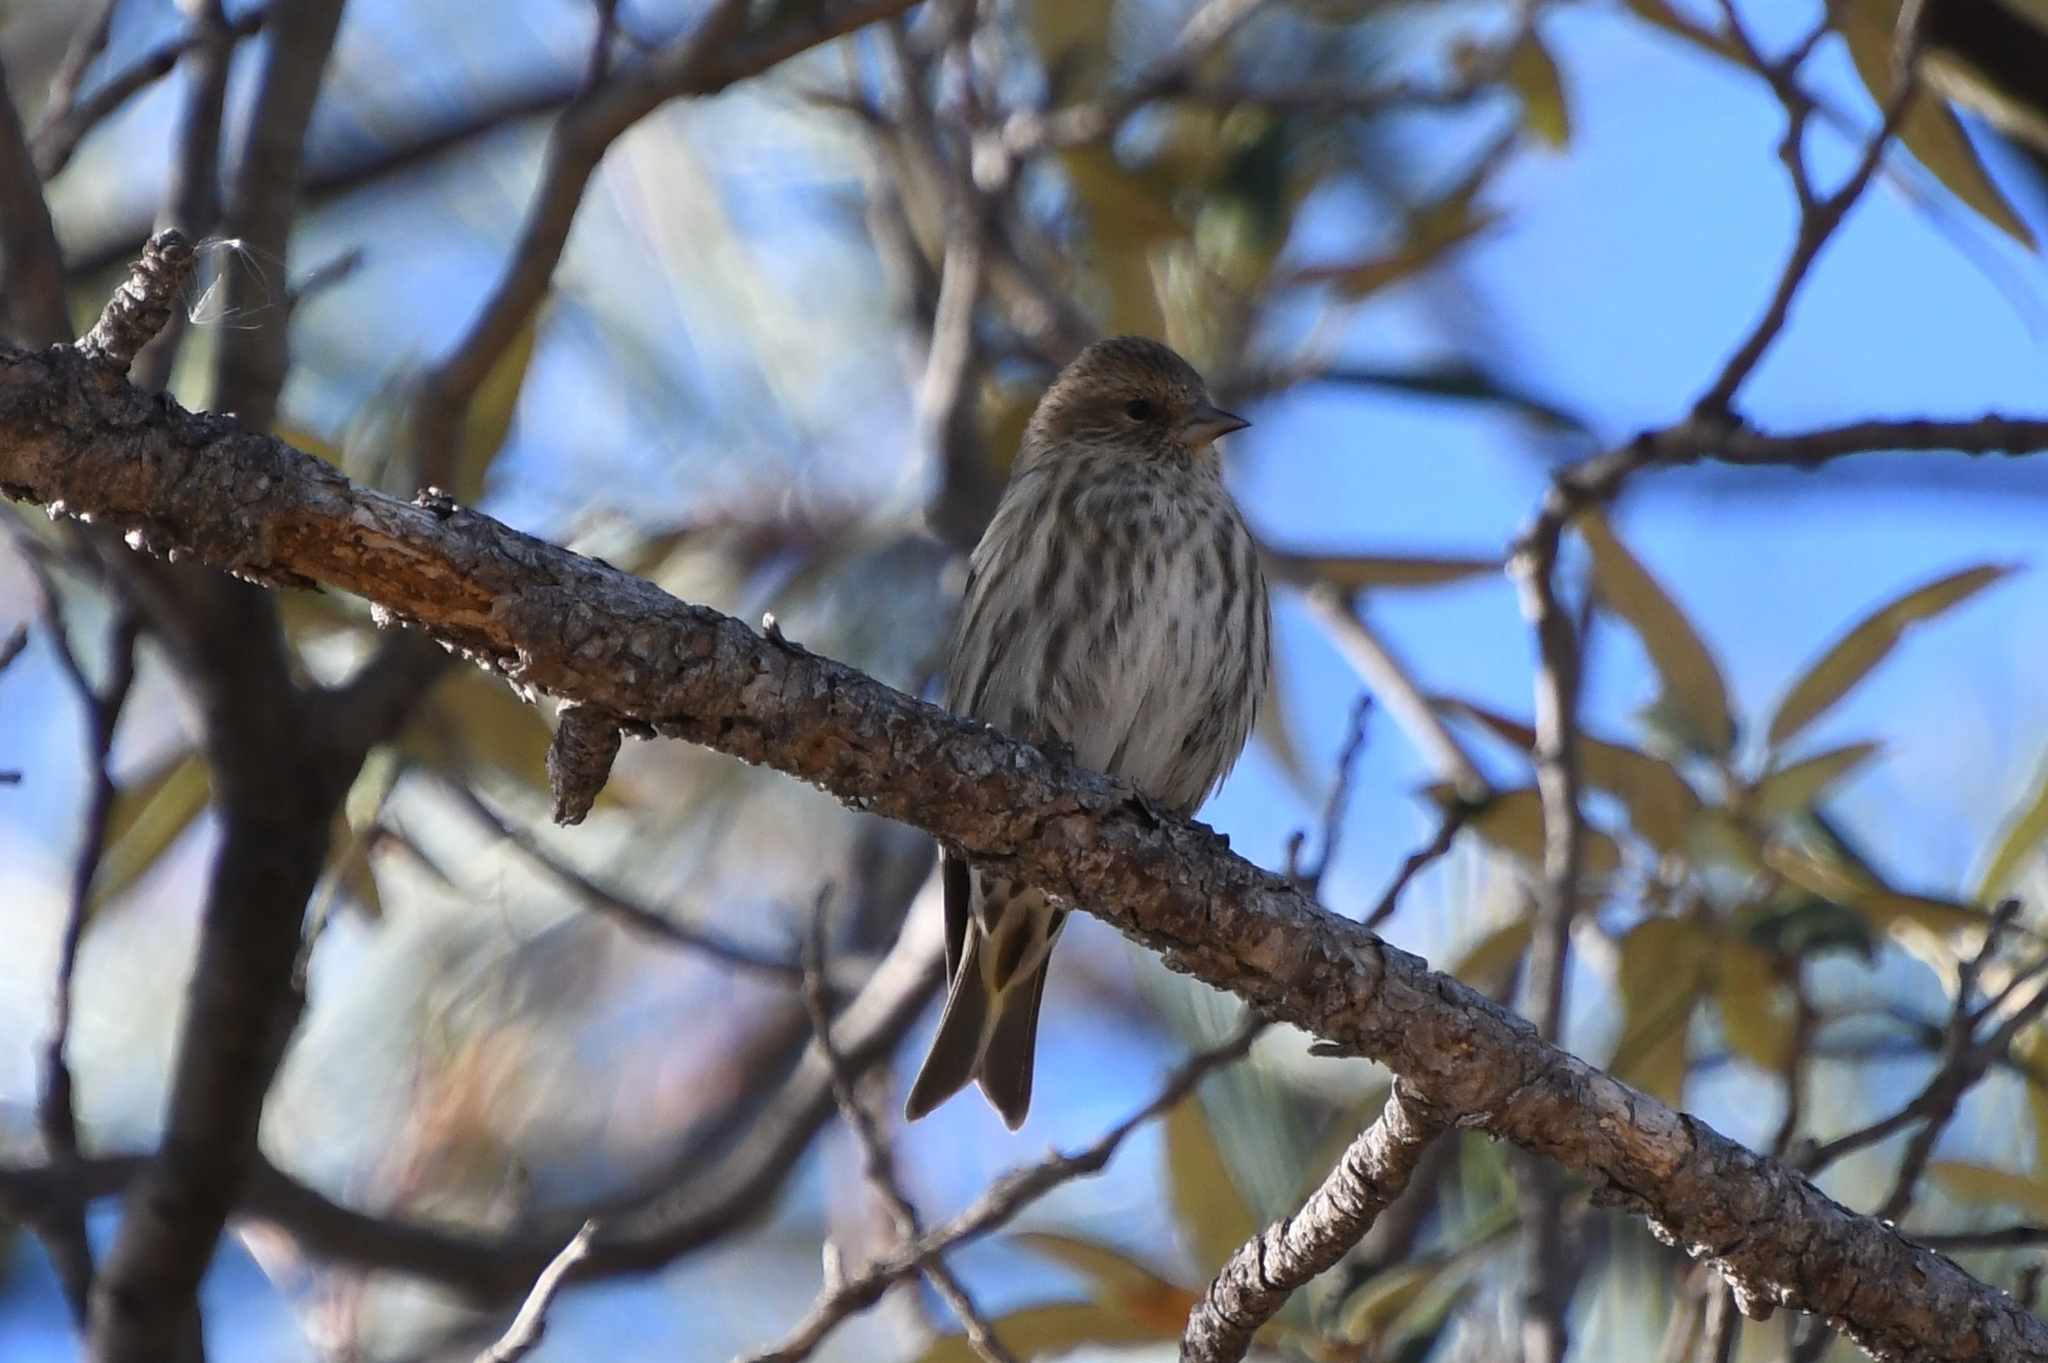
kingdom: Animalia
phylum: Chordata
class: Aves
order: Passeriformes
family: Fringillidae
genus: Spinus
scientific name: Spinus pinus
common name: Pine siskin
